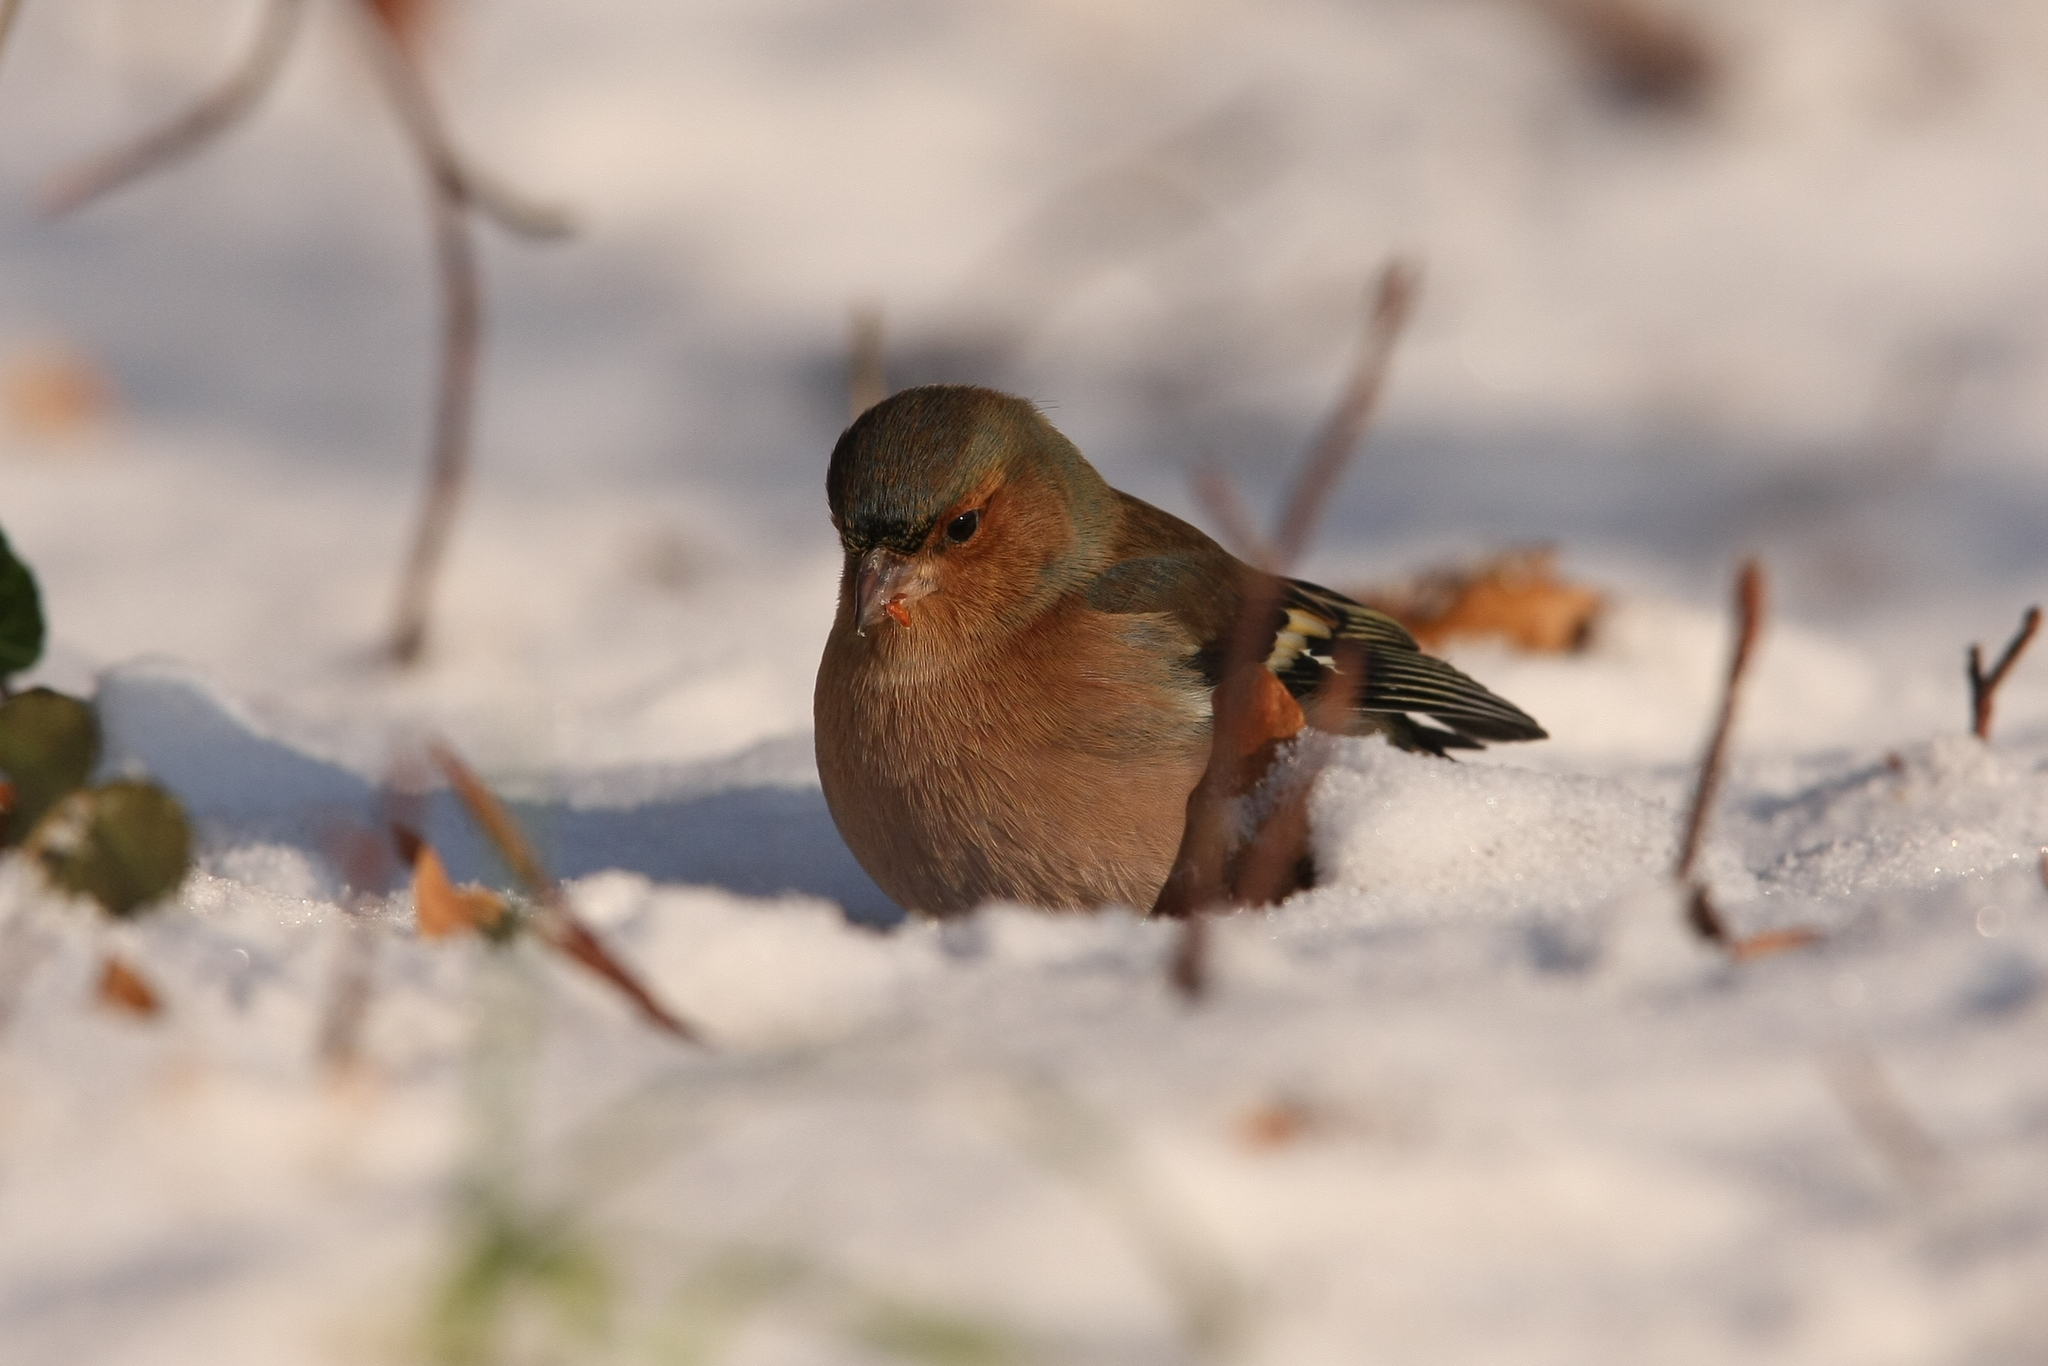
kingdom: Animalia
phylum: Chordata
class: Aves
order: Passeriformes
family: Fringillidae
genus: Fringilla
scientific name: Fringilla coelebs
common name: Common chaffinch
